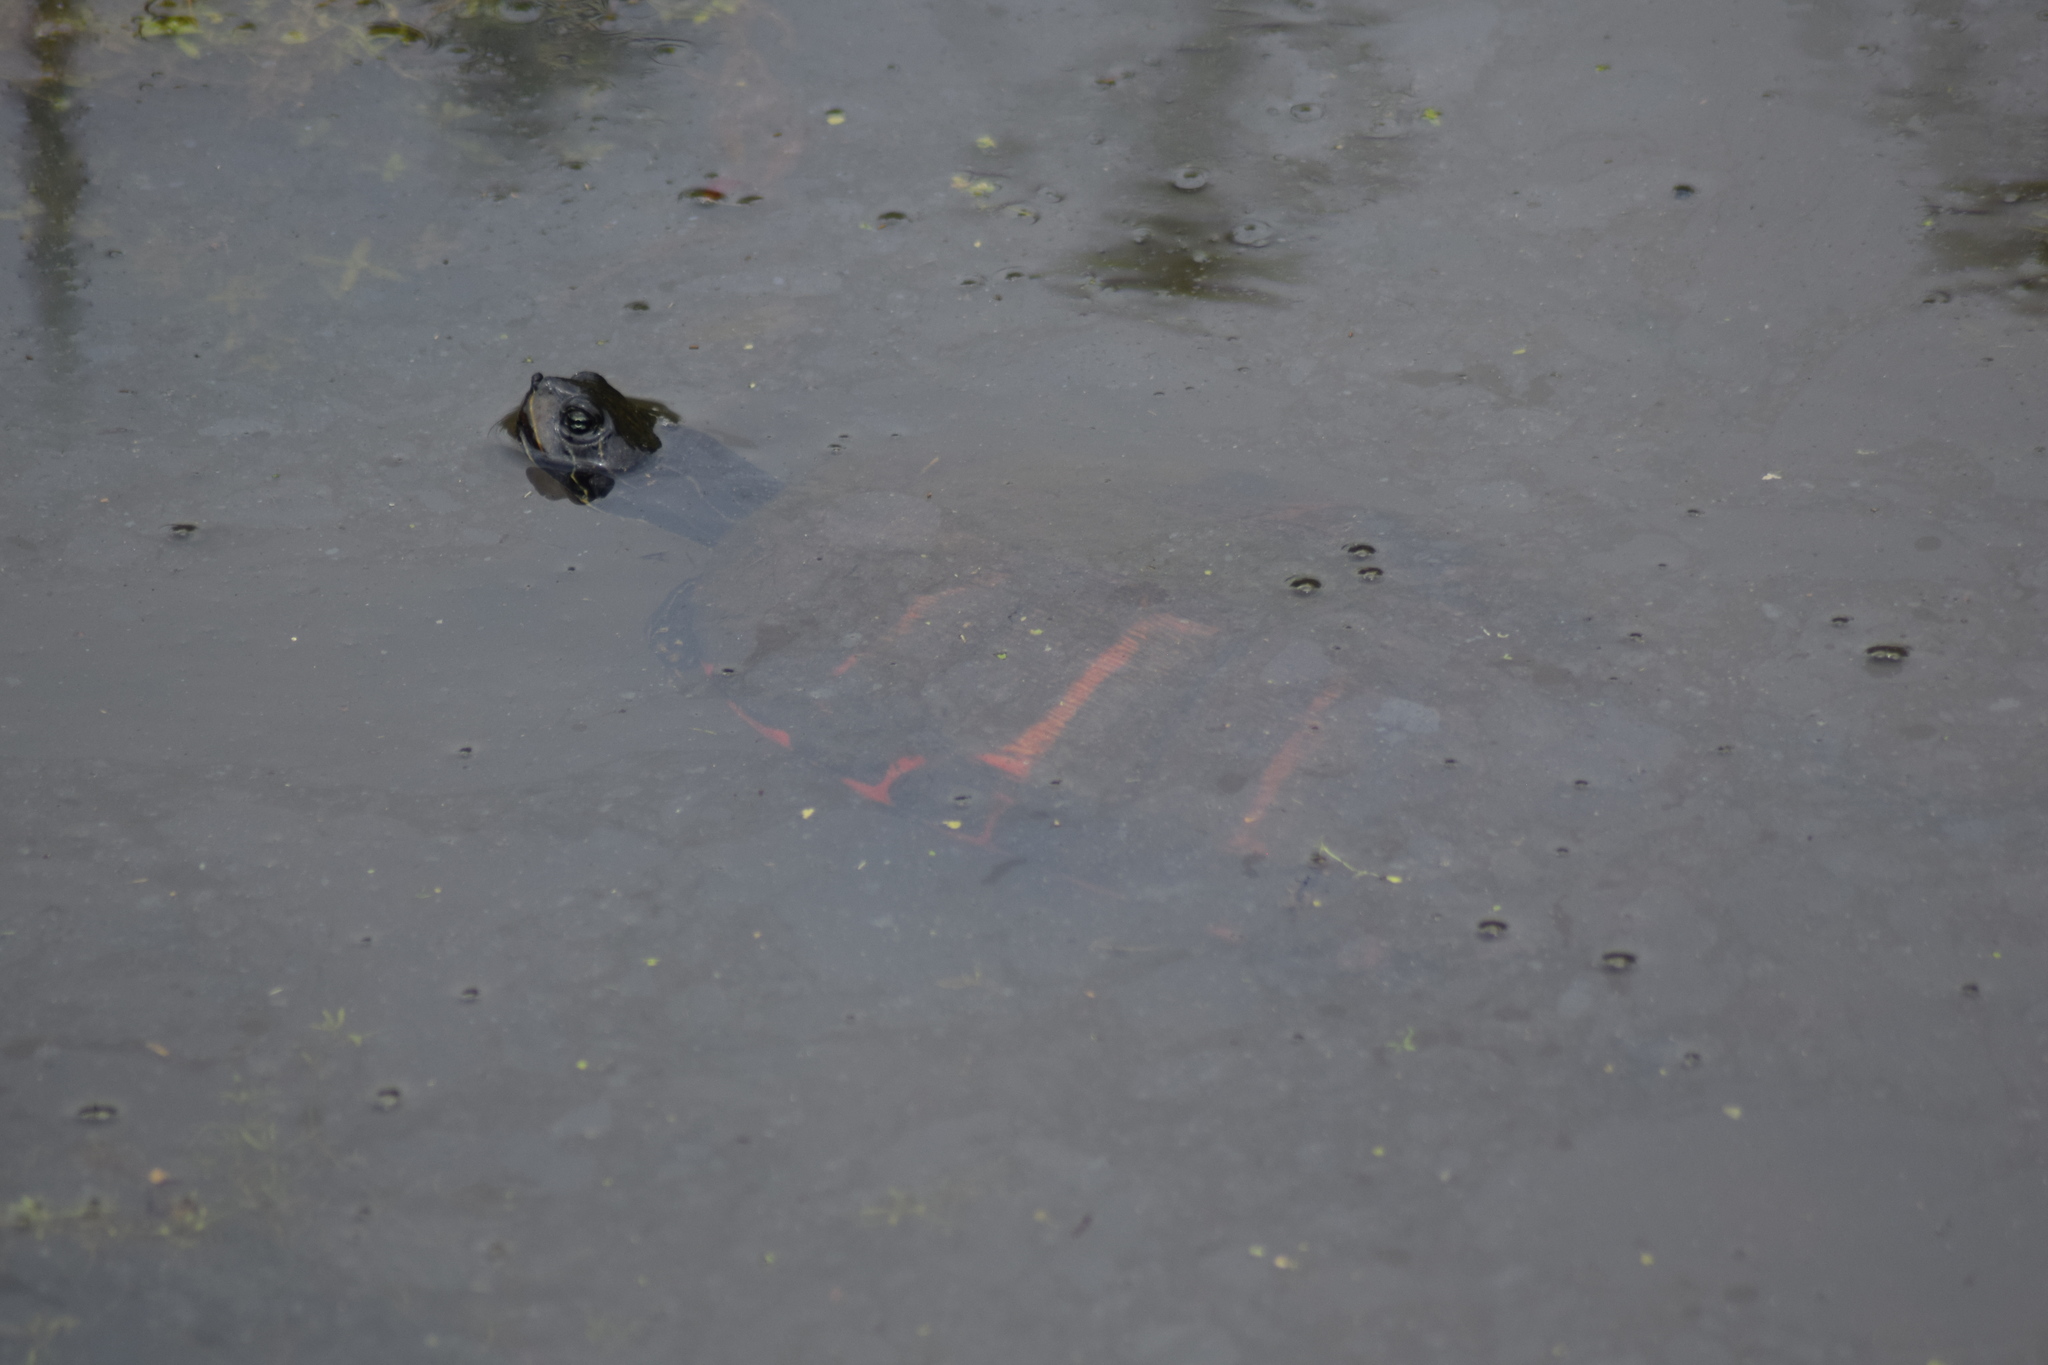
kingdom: Animalia
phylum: Chordata
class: Testudines
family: Emydidae
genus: Pseudemys
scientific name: Pseudemys rubriventris
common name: American red-bellied turtle
